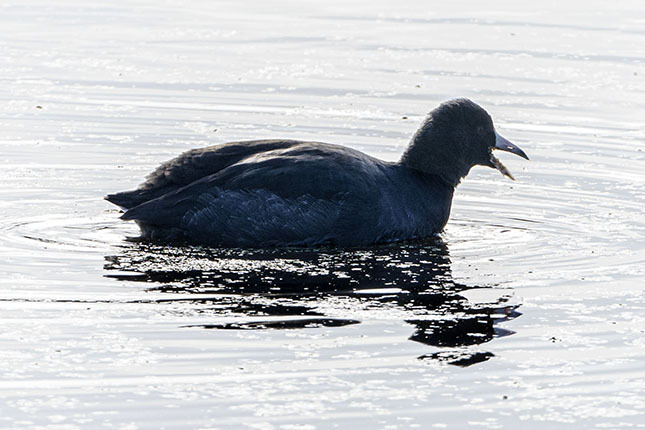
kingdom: Animalia
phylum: Chordata
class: Aves
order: Gruiformes
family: Rallidae
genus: Fulica
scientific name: Fulica americana
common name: American coot
